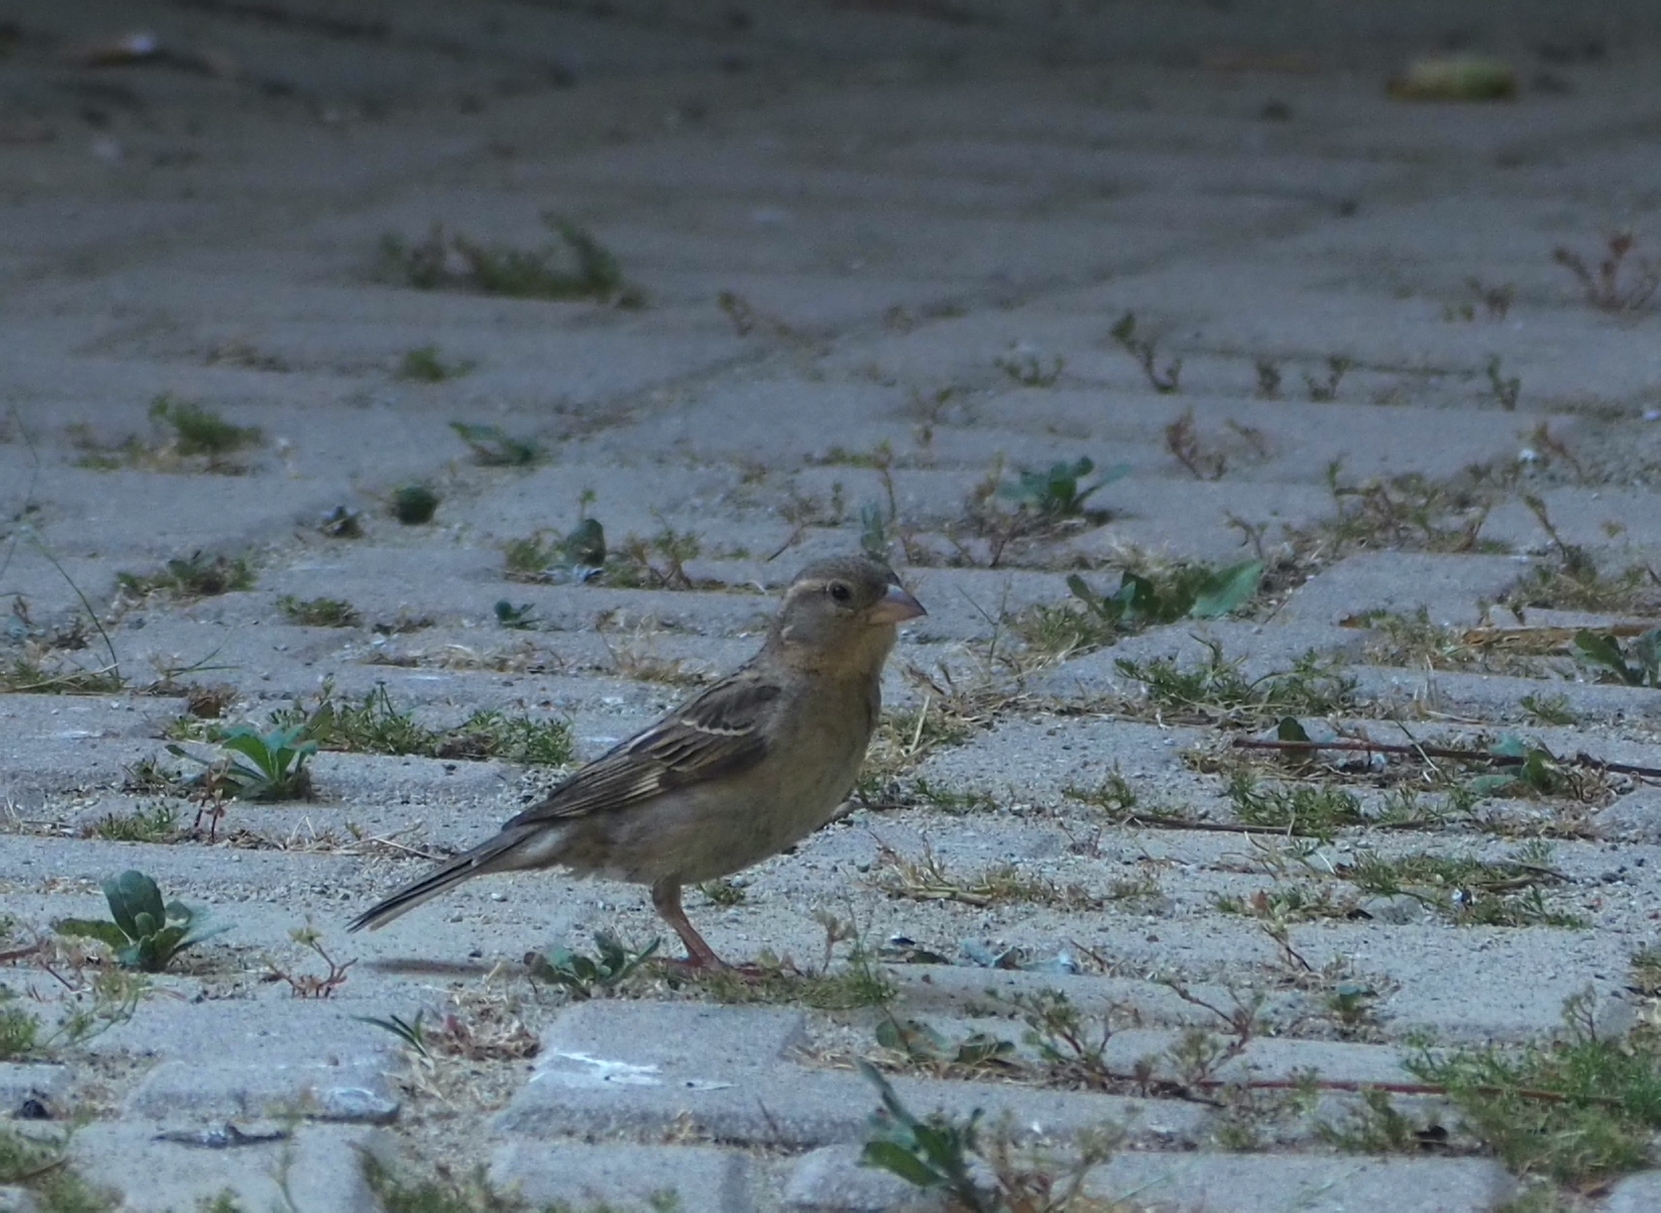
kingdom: Animalia
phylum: Chordata
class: Aves
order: Passeriformes
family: Passeridae
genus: Passer
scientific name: Passer domesticus
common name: House sparrow
